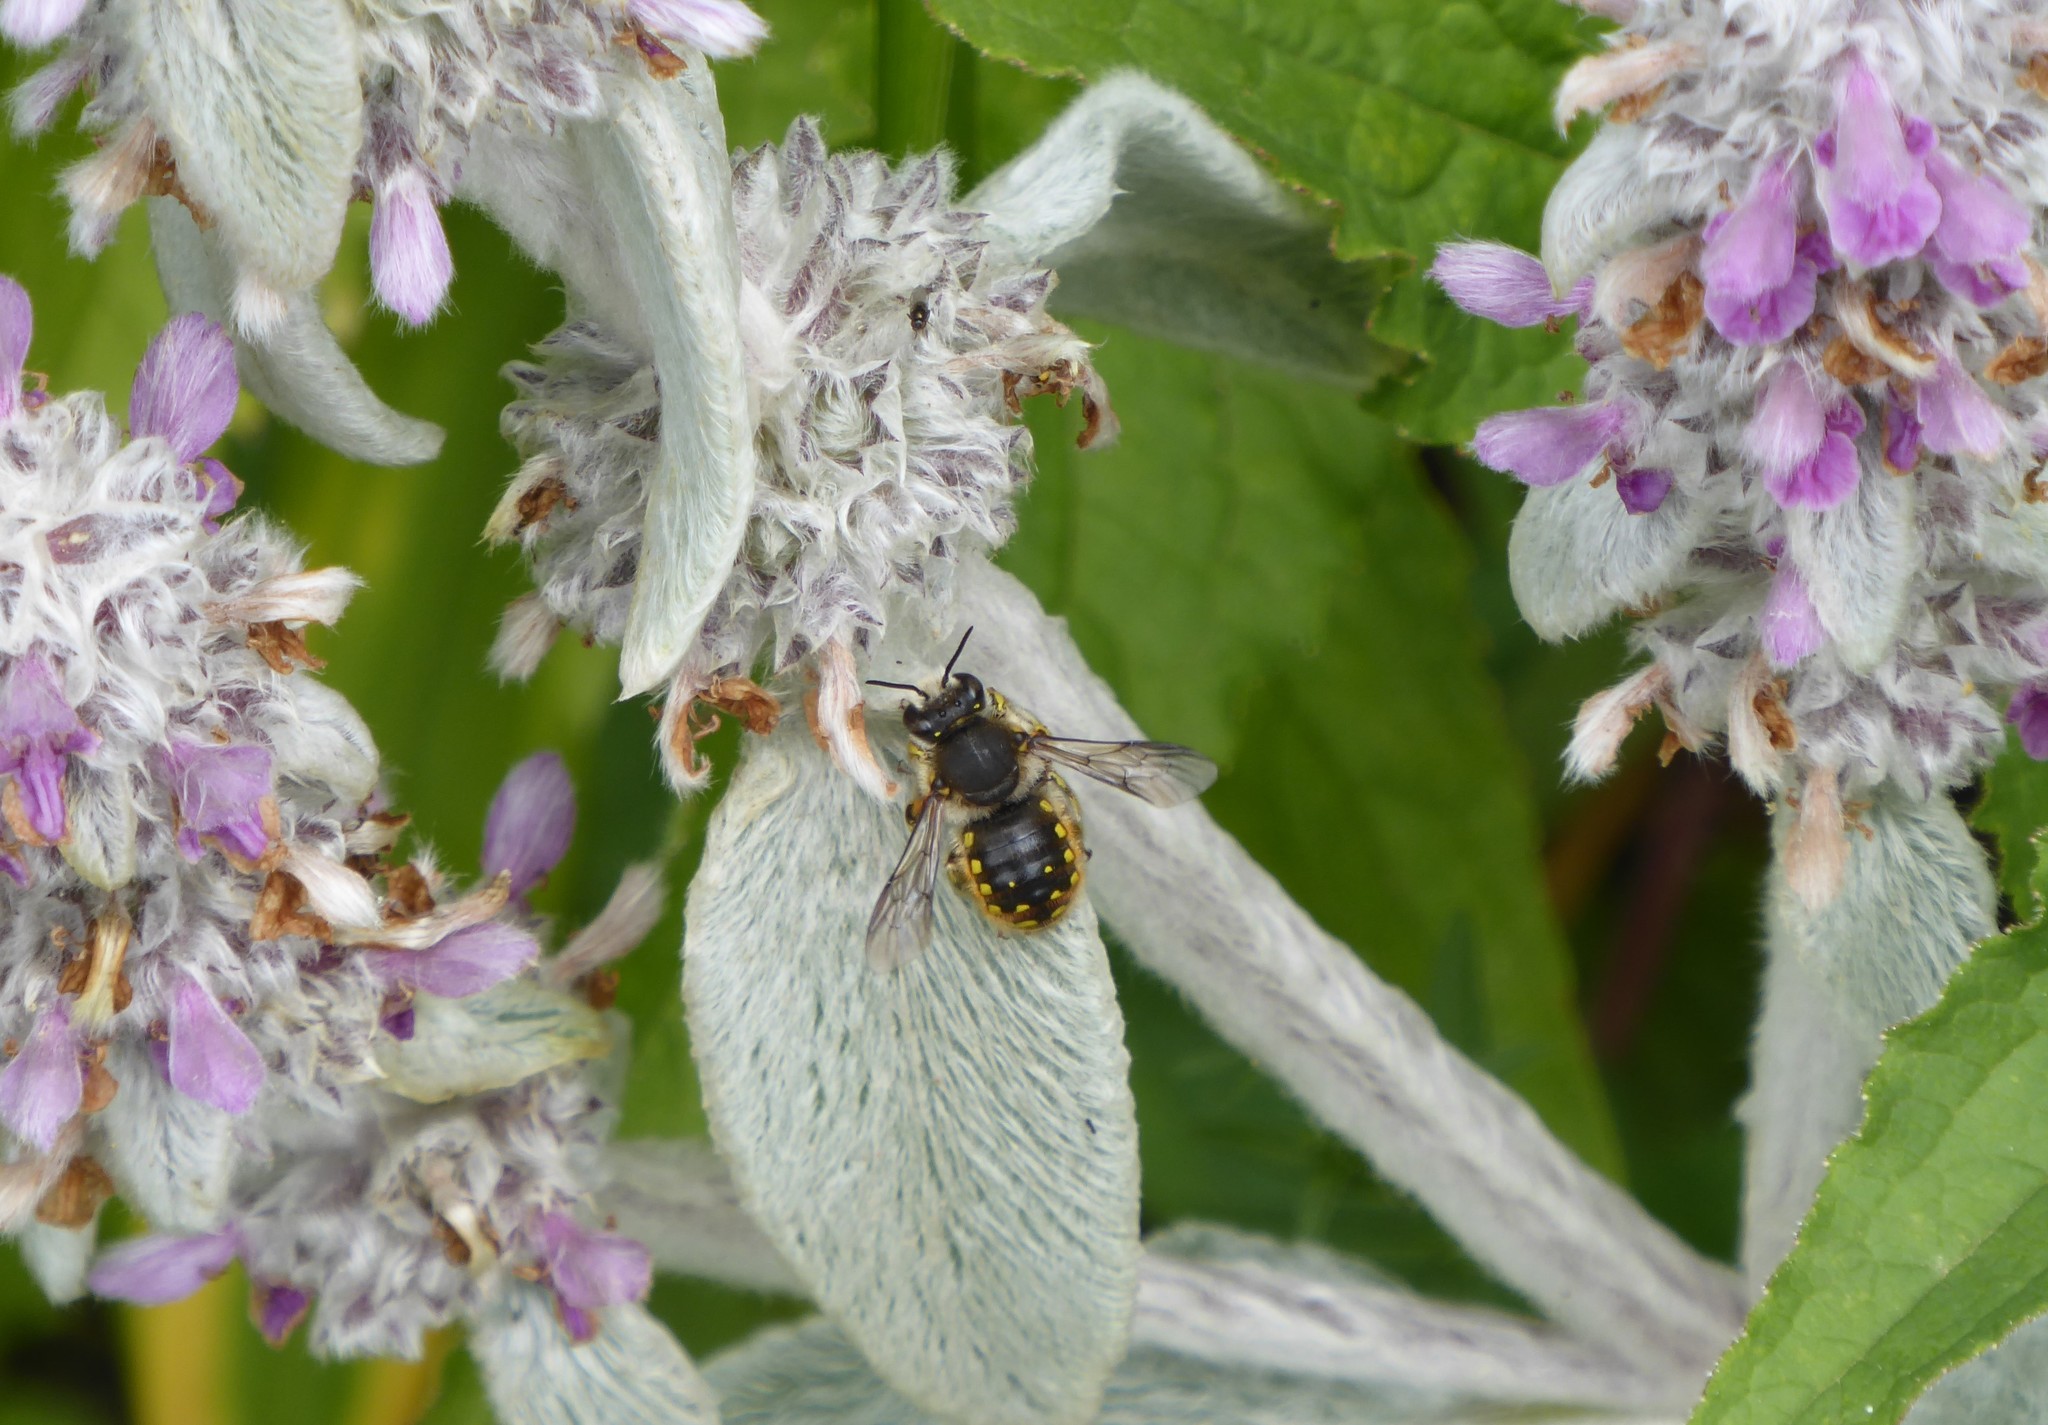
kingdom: Animalia
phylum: Arthropoda
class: Insecta
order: Hymenoptera
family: Megachilidae
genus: Anthidium
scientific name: Anthidium manicatum
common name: Wool carder bee
